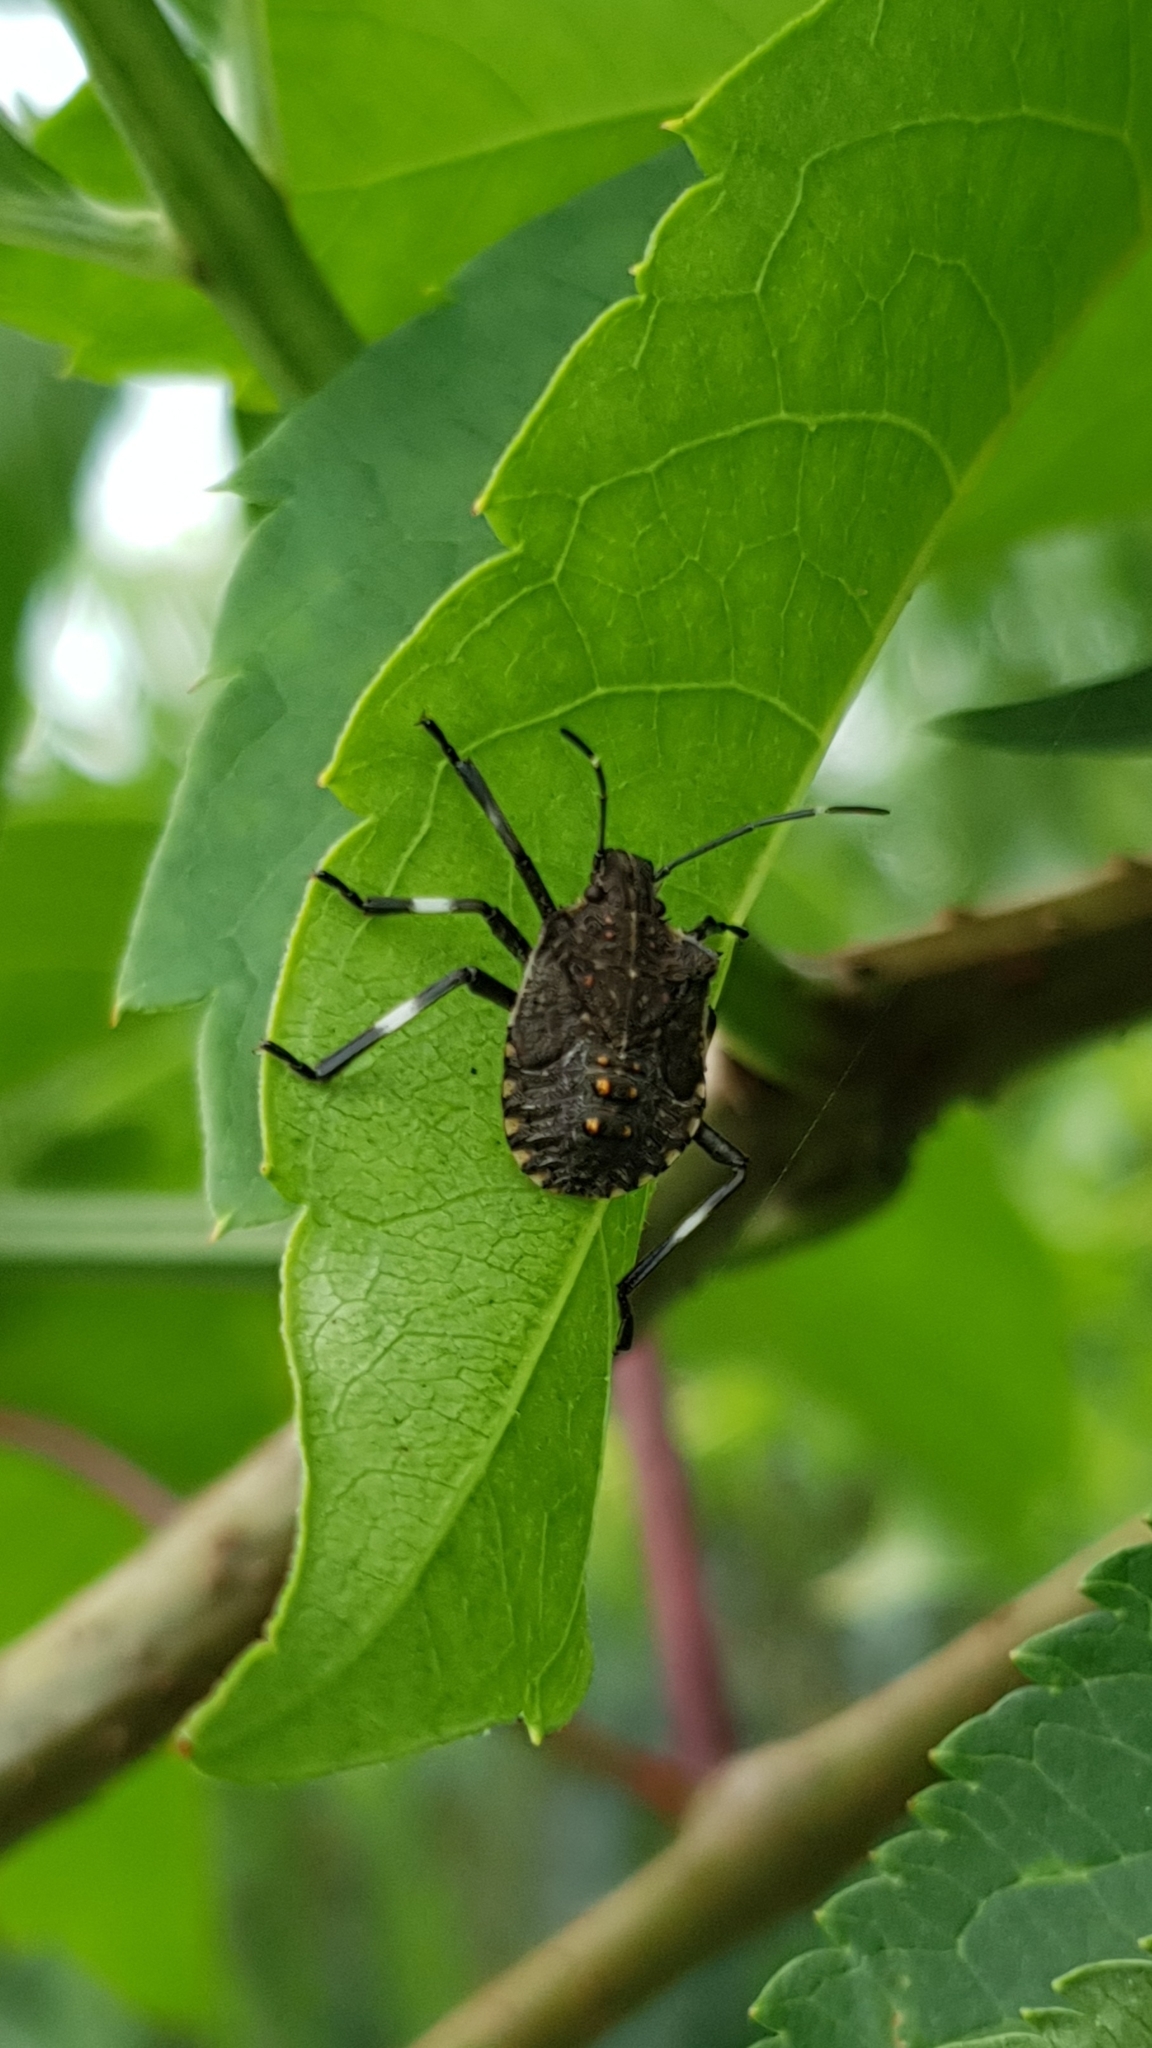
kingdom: Animalia
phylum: Arthropoda
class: Insecta
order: Hemiptera
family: Pentatomidae
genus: Halyomorpha
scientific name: Halyomorpha halys
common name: Brown marmorated stink bug
